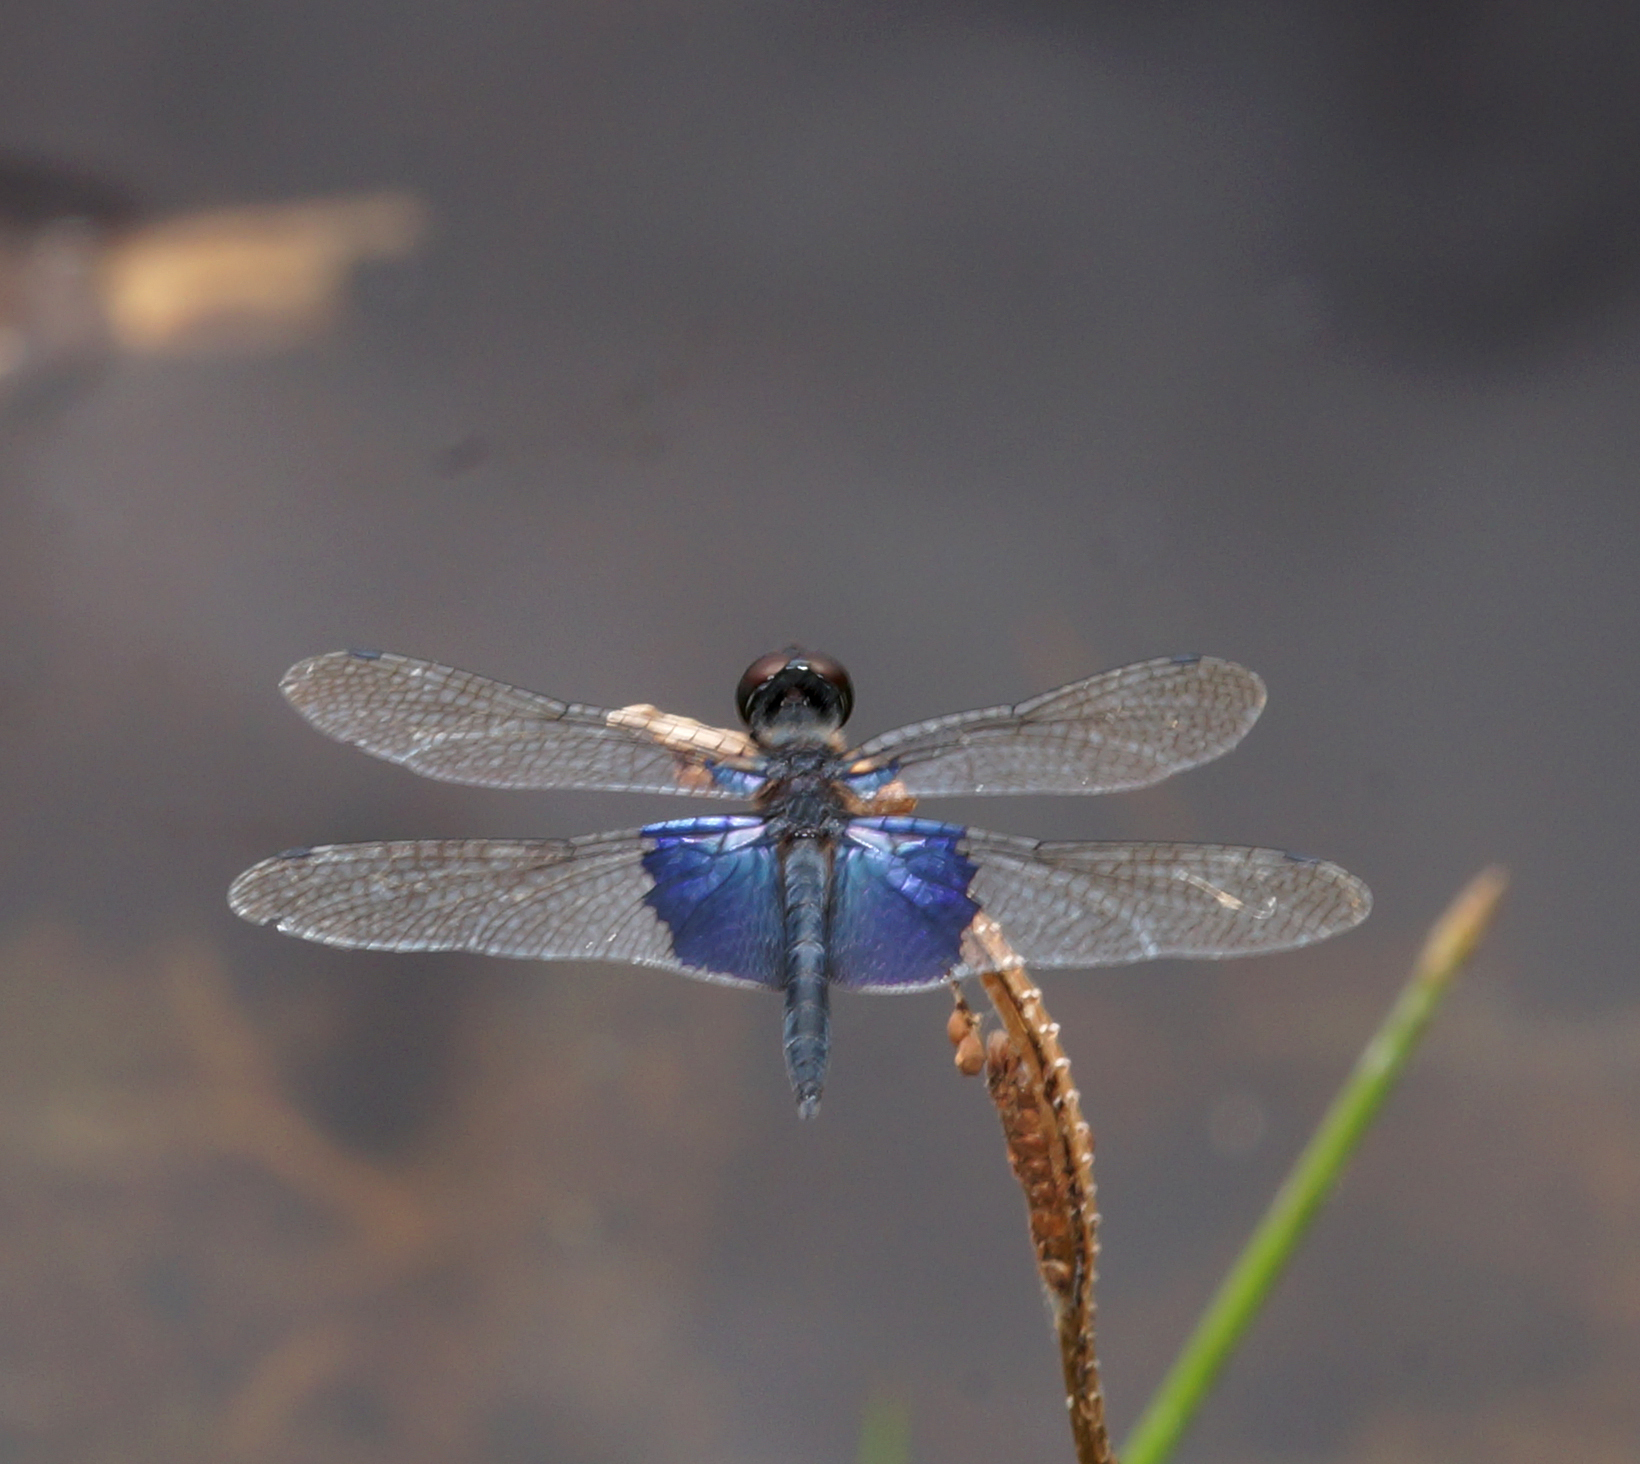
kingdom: Animalia
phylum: Arthropoda
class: Insecta
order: Odonata
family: Libellulidae
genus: Rhyothemis
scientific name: Rhyothemis triangularis
